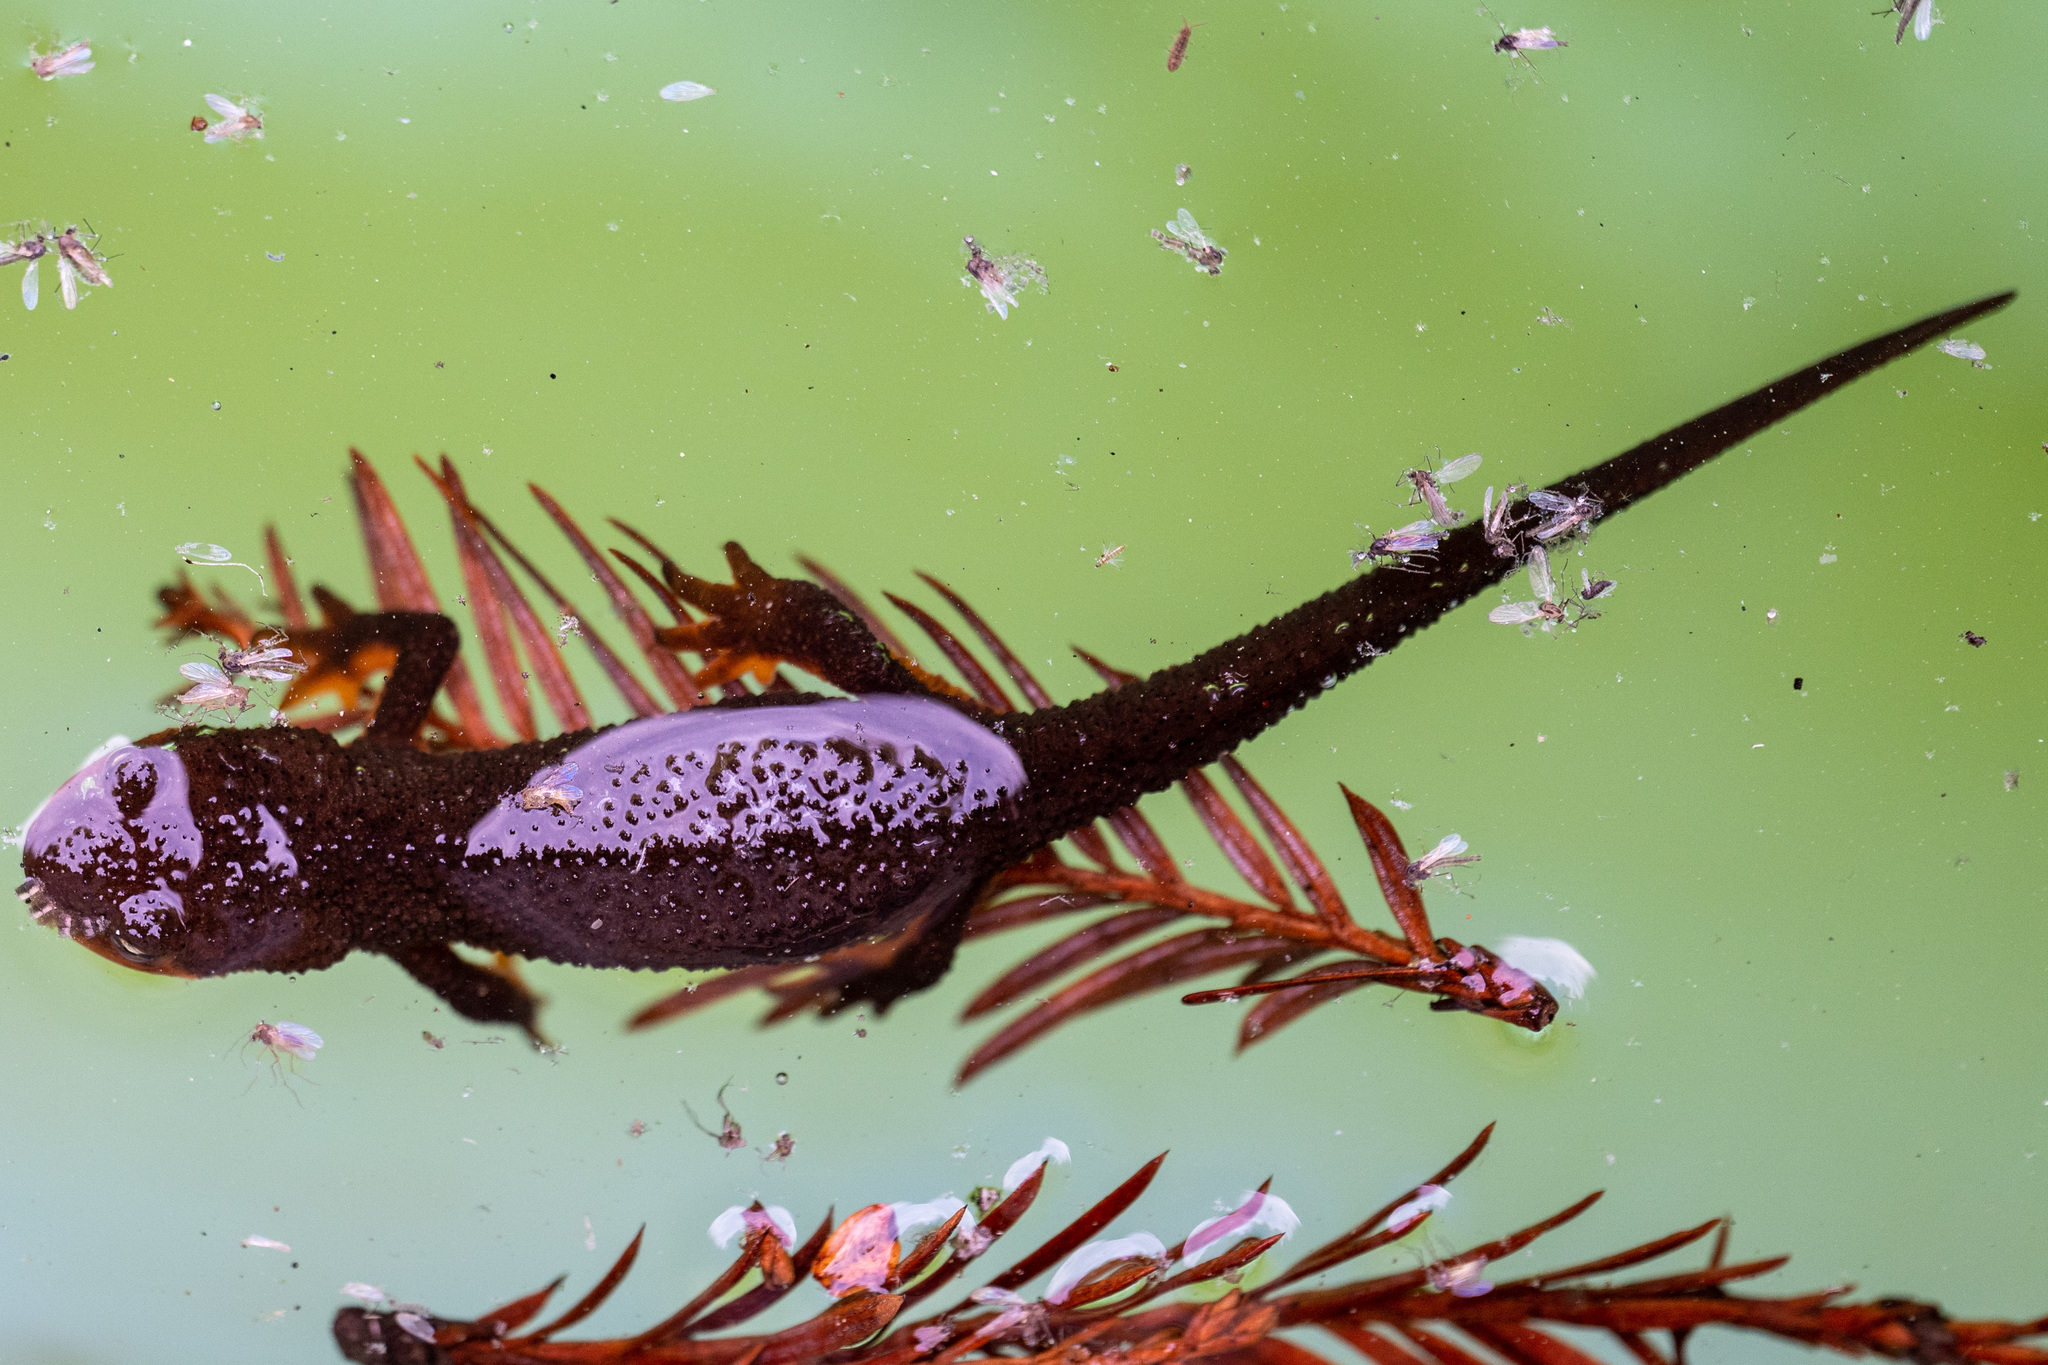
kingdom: Animalia
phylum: Chordata
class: Amphibia
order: Caudata
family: Salamandridae
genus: Taricha
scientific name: Taricha granulosa
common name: Roughskin newt
